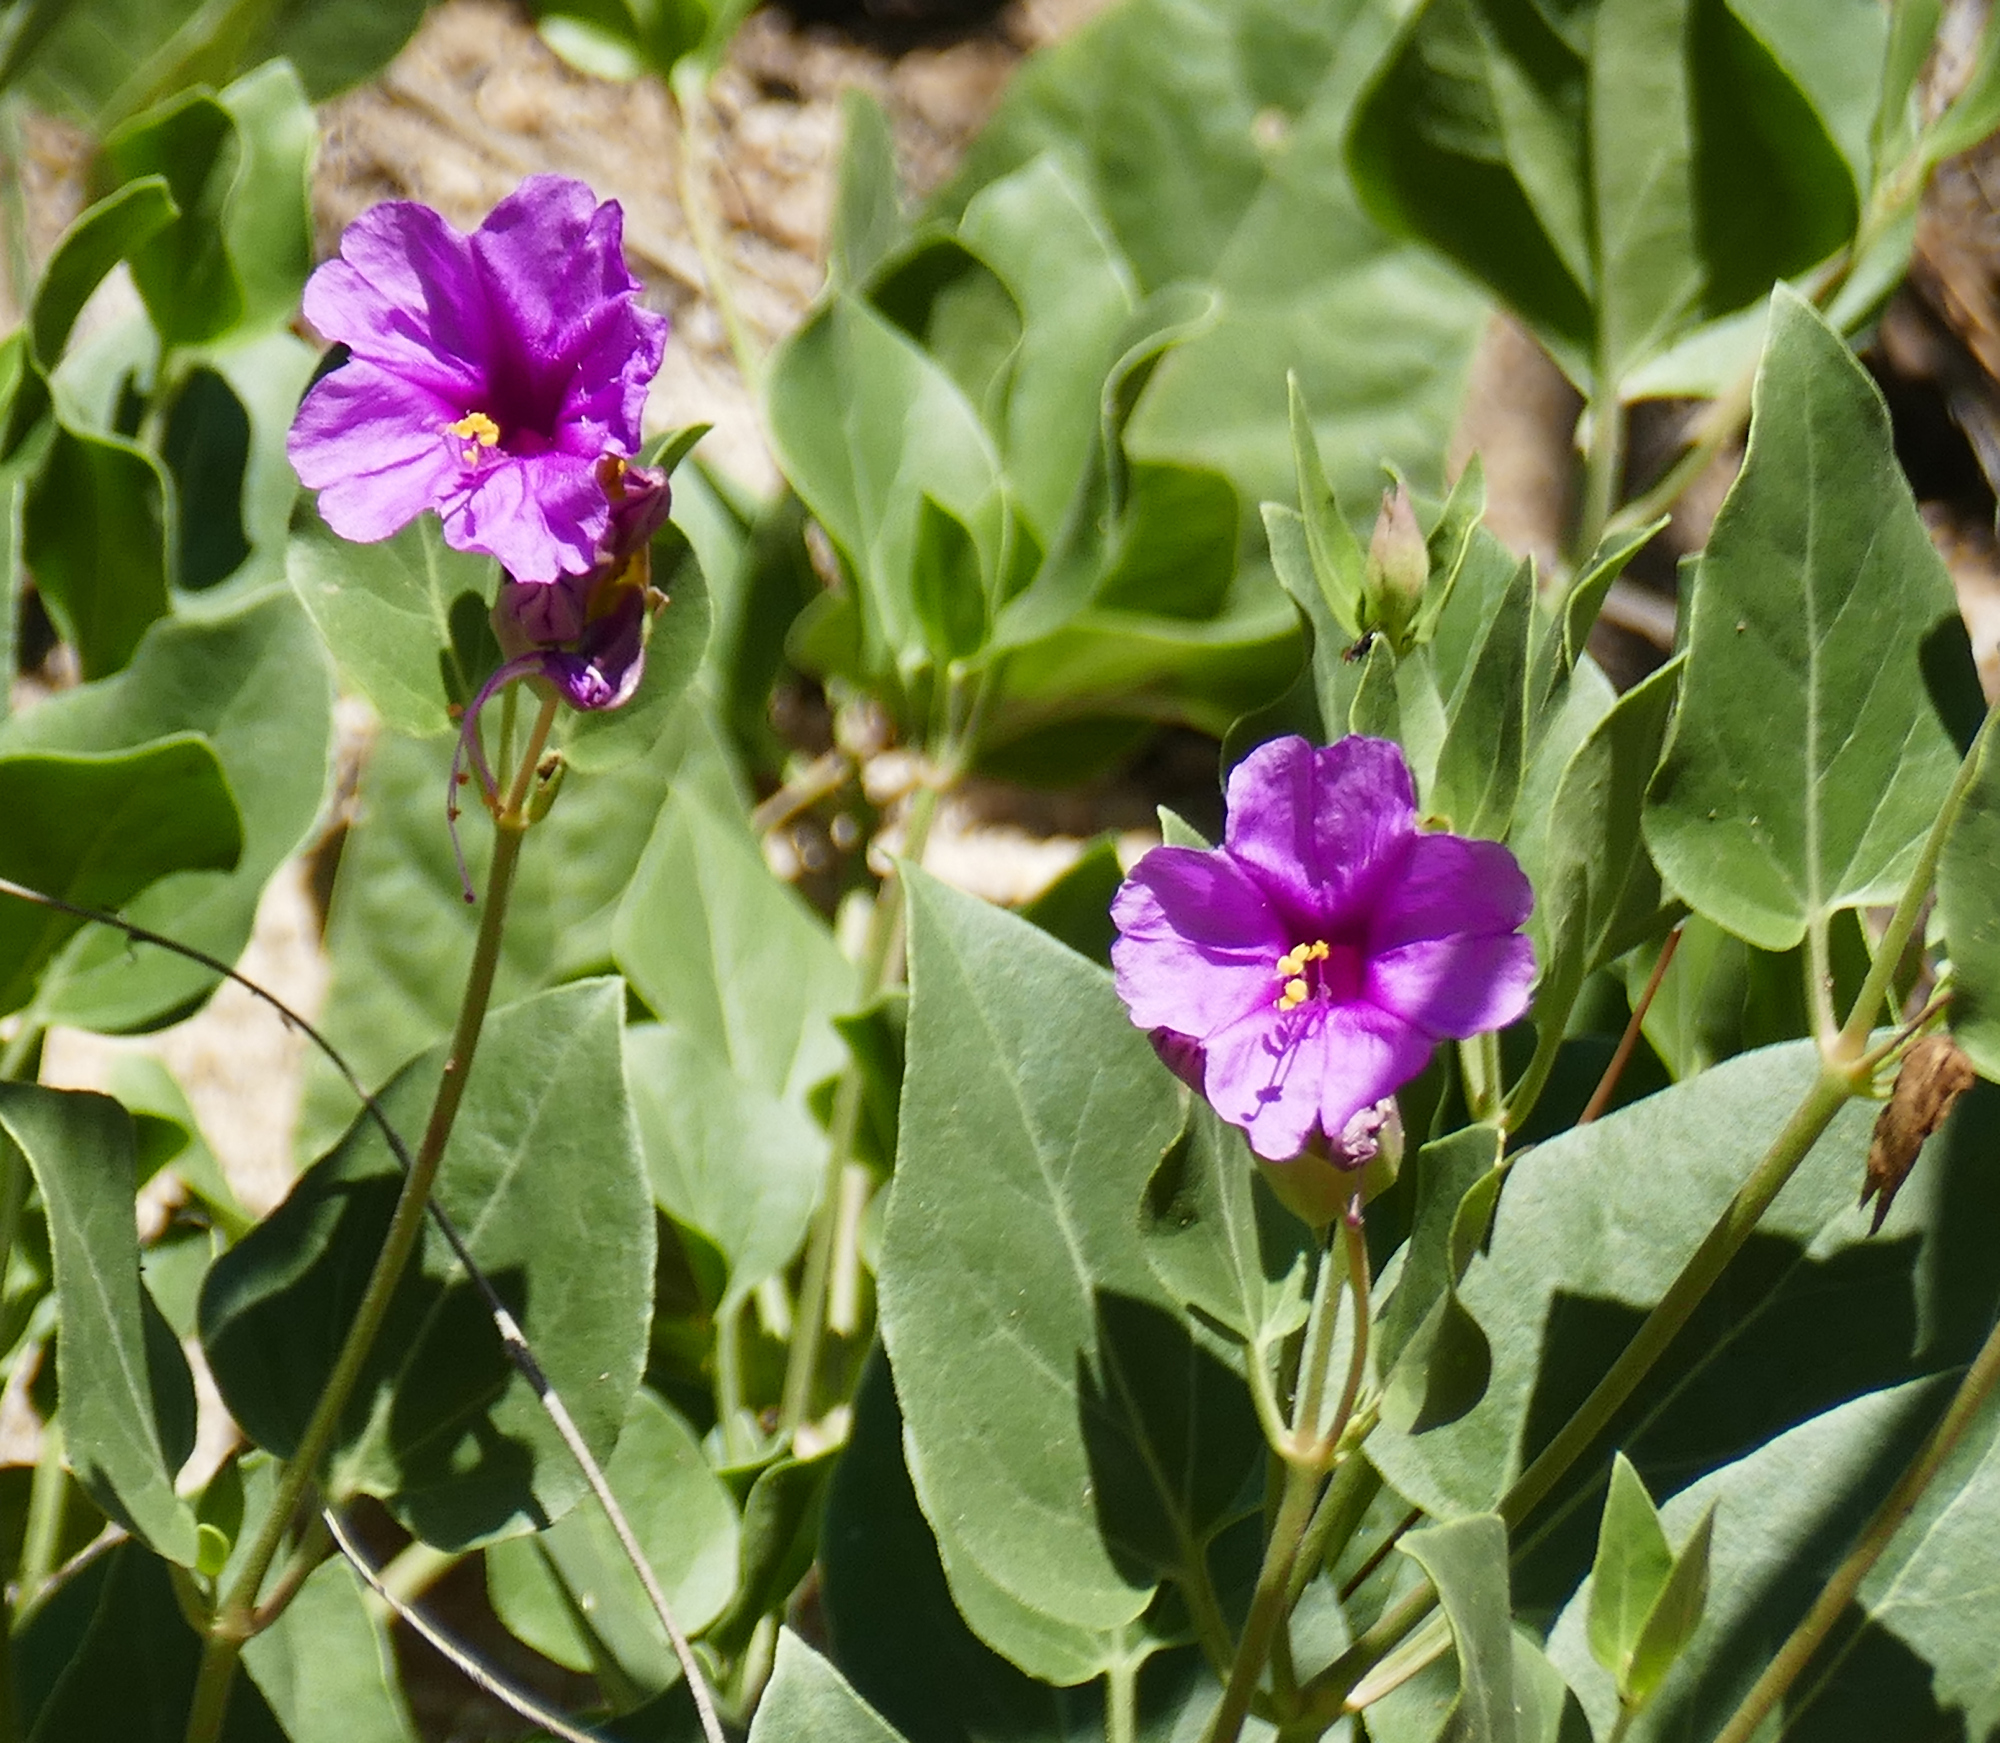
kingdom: Plantae
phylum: Tracheophyta
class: Magnoliopsida
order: Caryophyllales
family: Nyctaginaceae
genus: Mirabilis
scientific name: Mirabilis multiflora
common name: Froebel's four-o'clock
